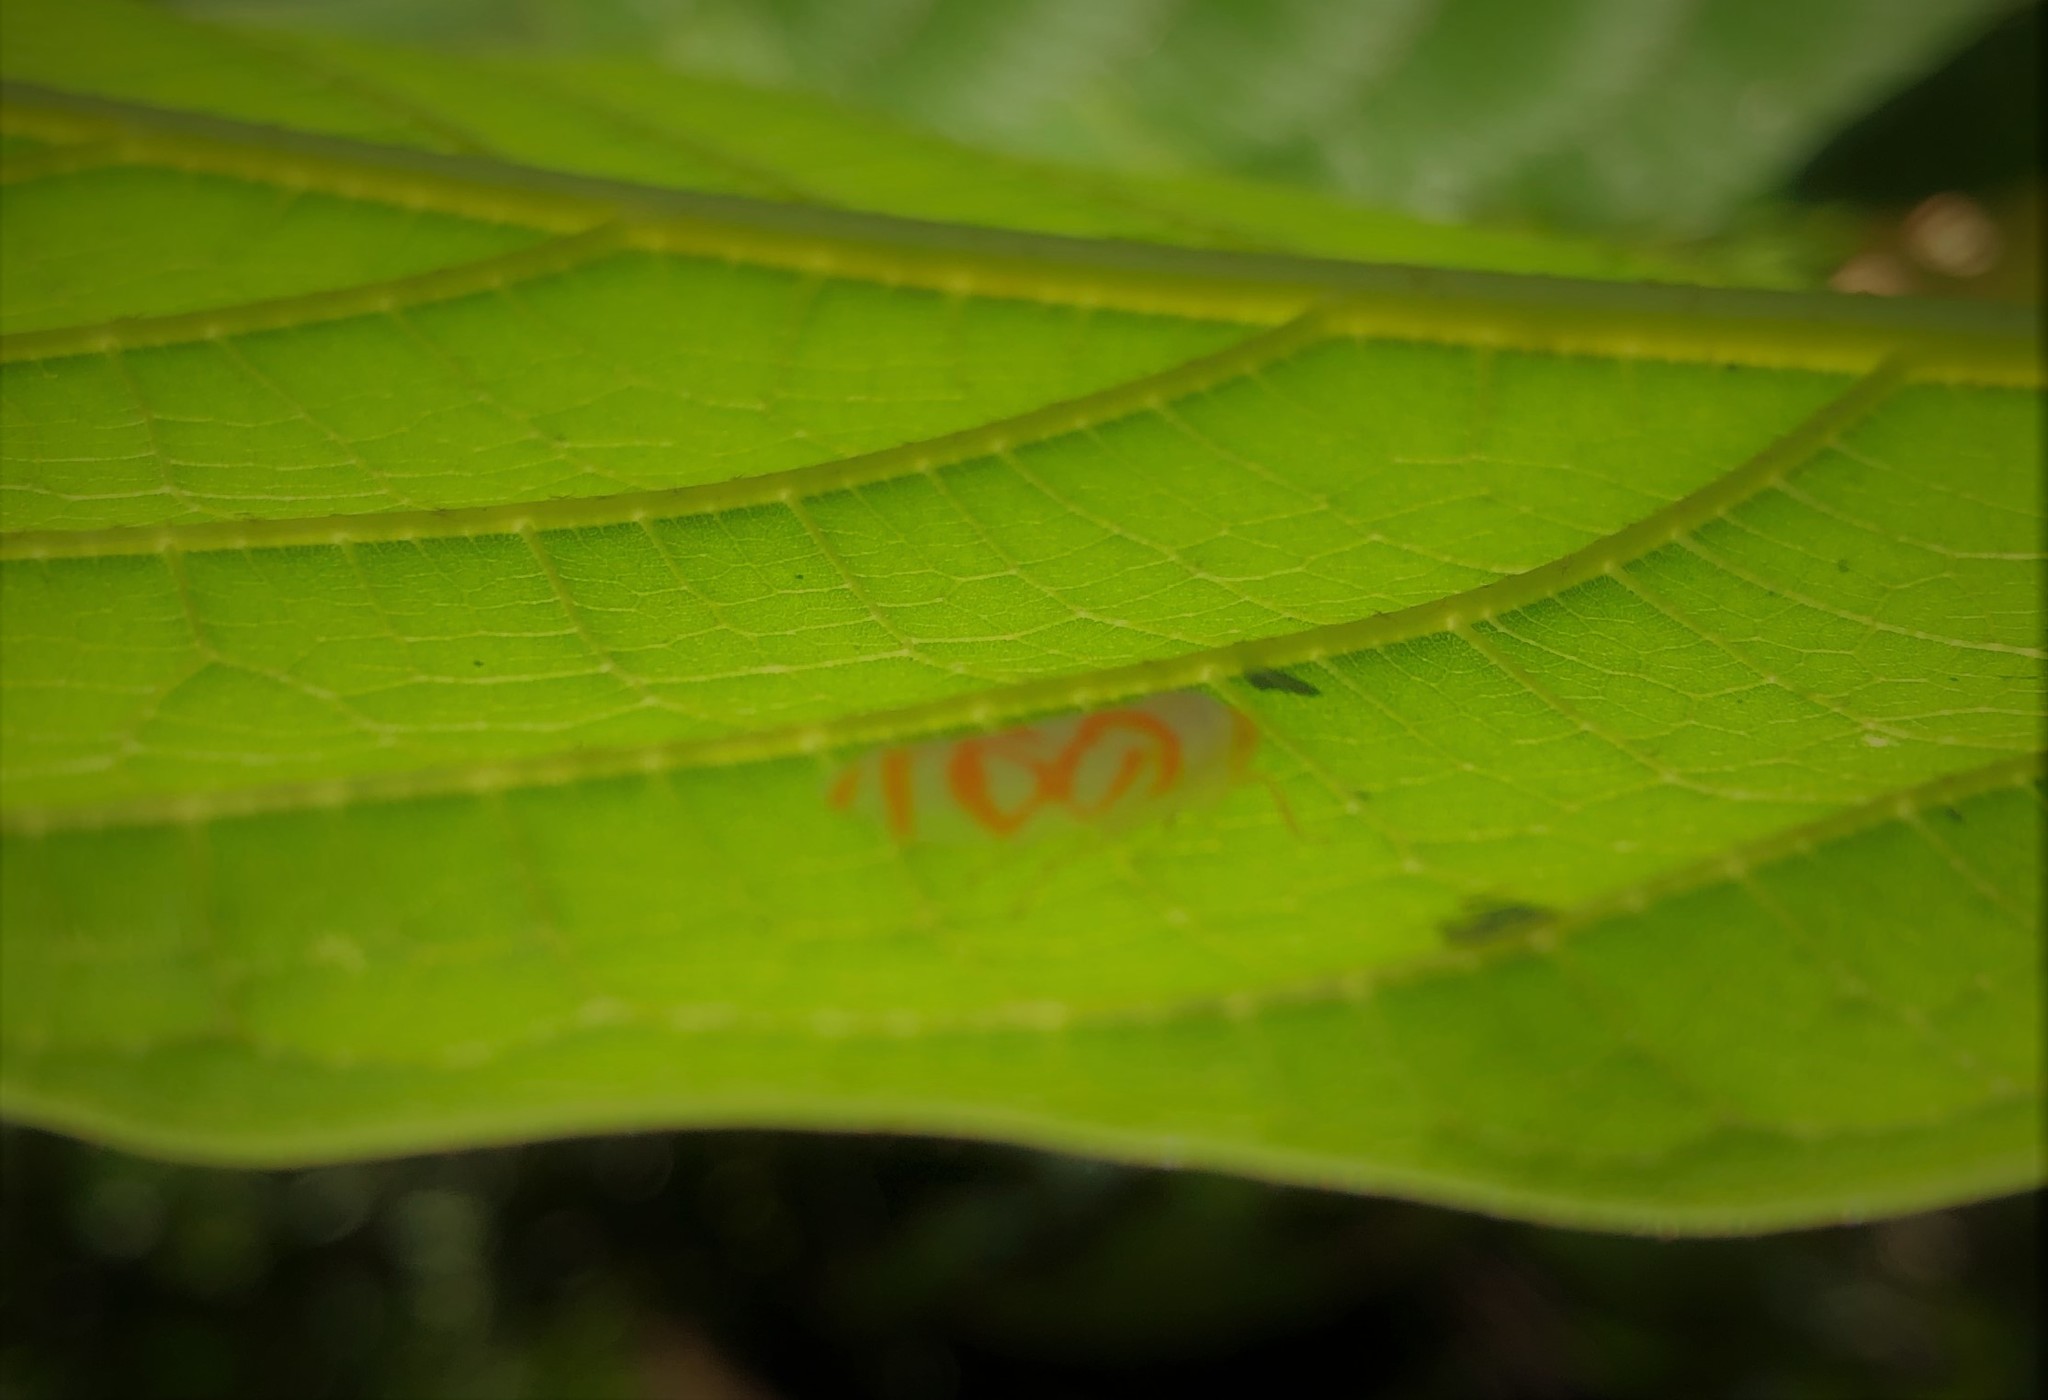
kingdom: Animalia
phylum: Arthropoda
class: Insecta
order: Hemiptera
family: Cicadellidae
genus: Anatkina
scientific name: Anatkina hollowayi
